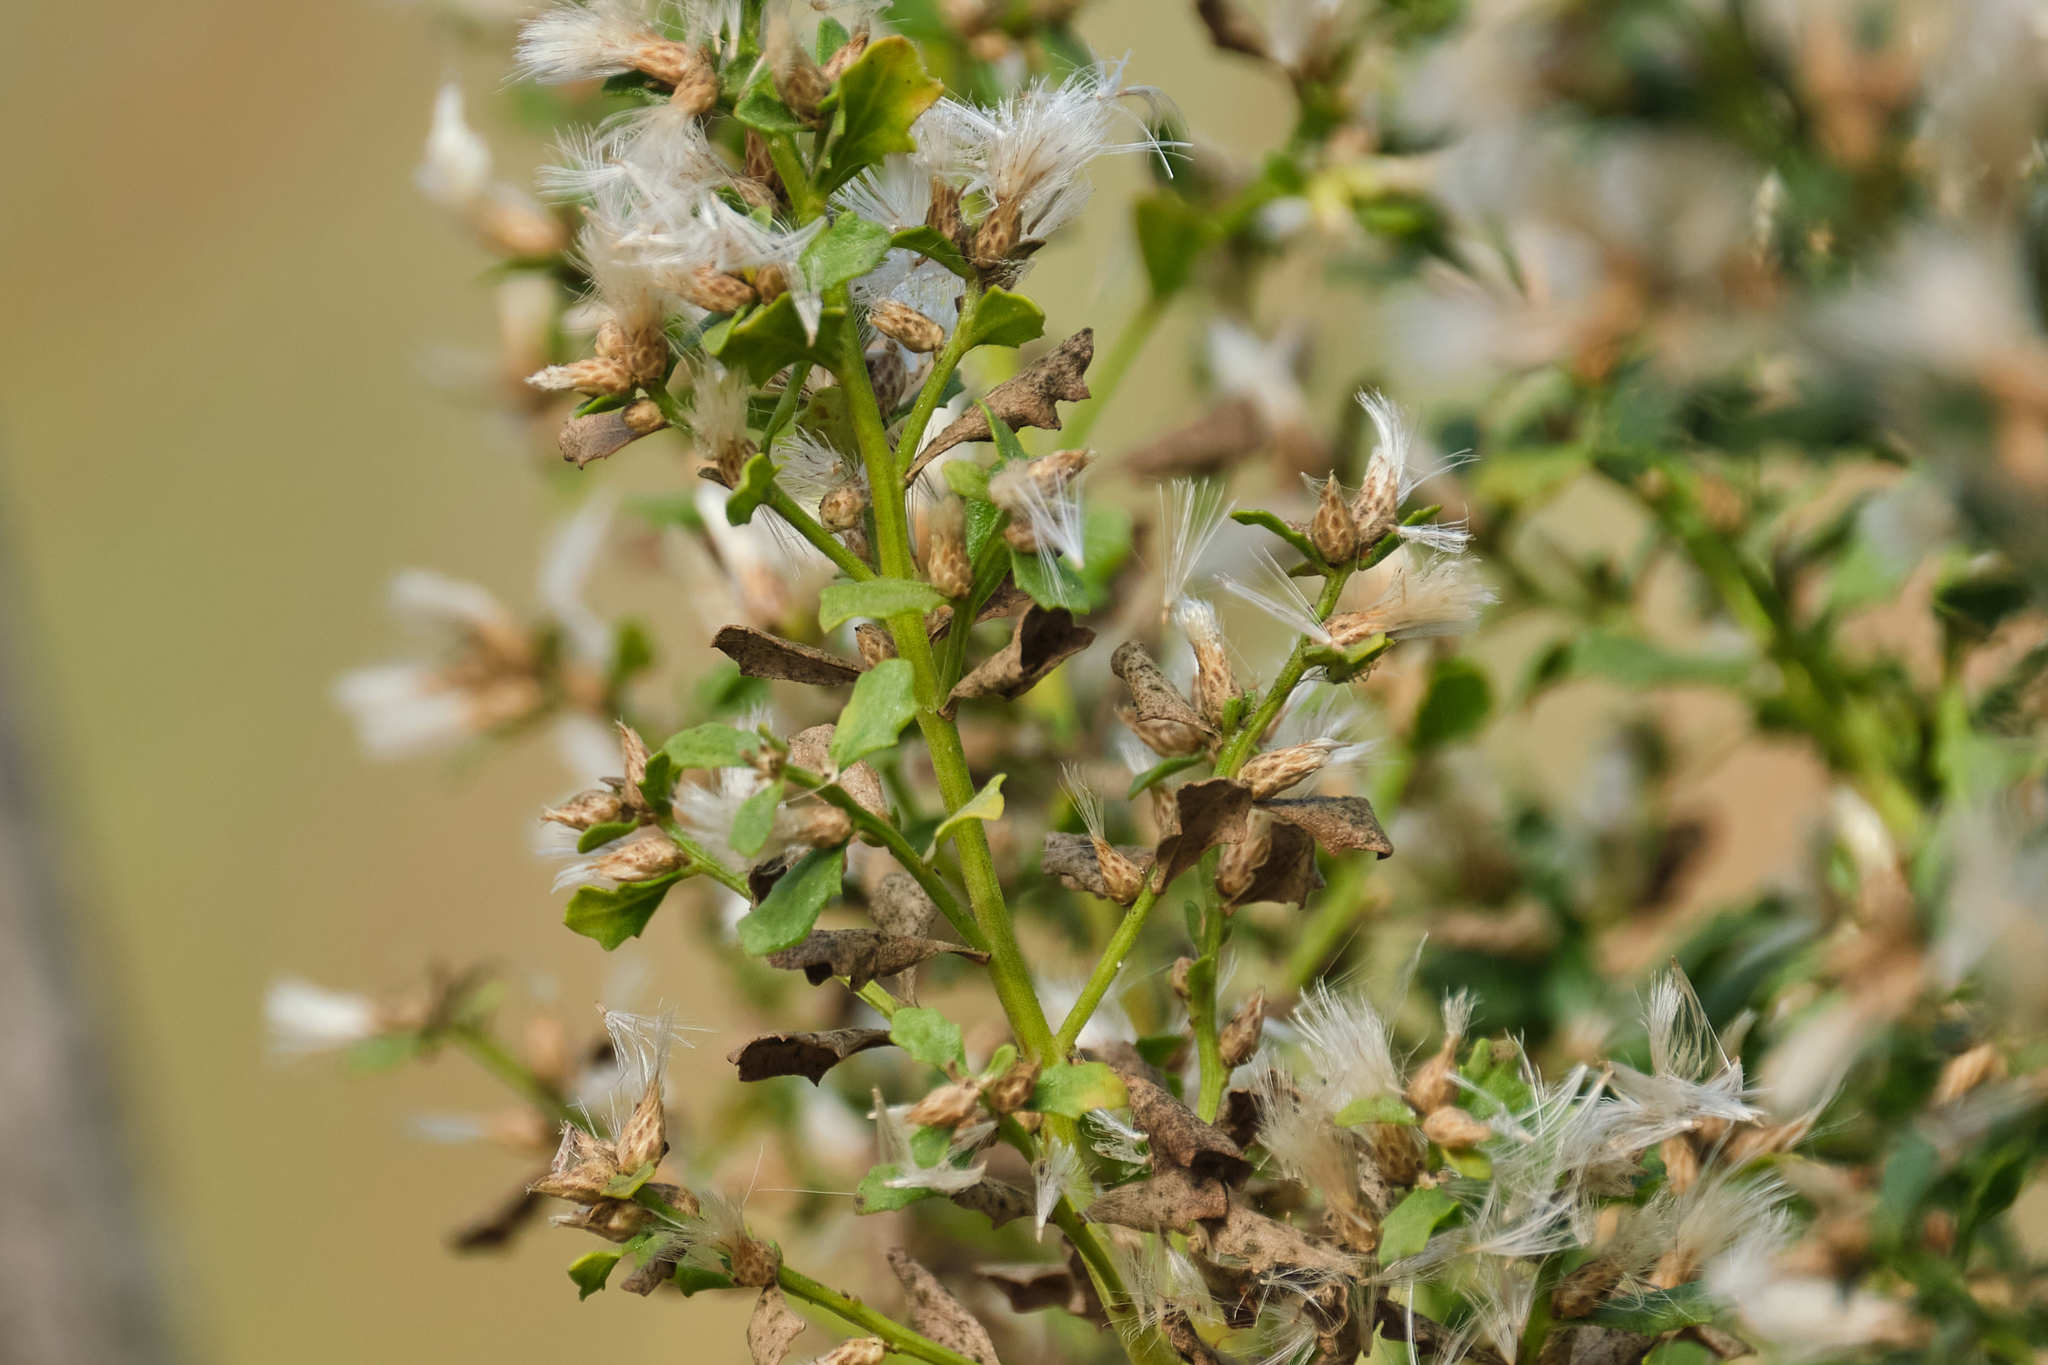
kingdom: Plantae
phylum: Tracheophyta
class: Magnoliopsida
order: Asterales
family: Asteraceae
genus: Baccharis
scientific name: Baccharis pilularis
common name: Coyotebrush
